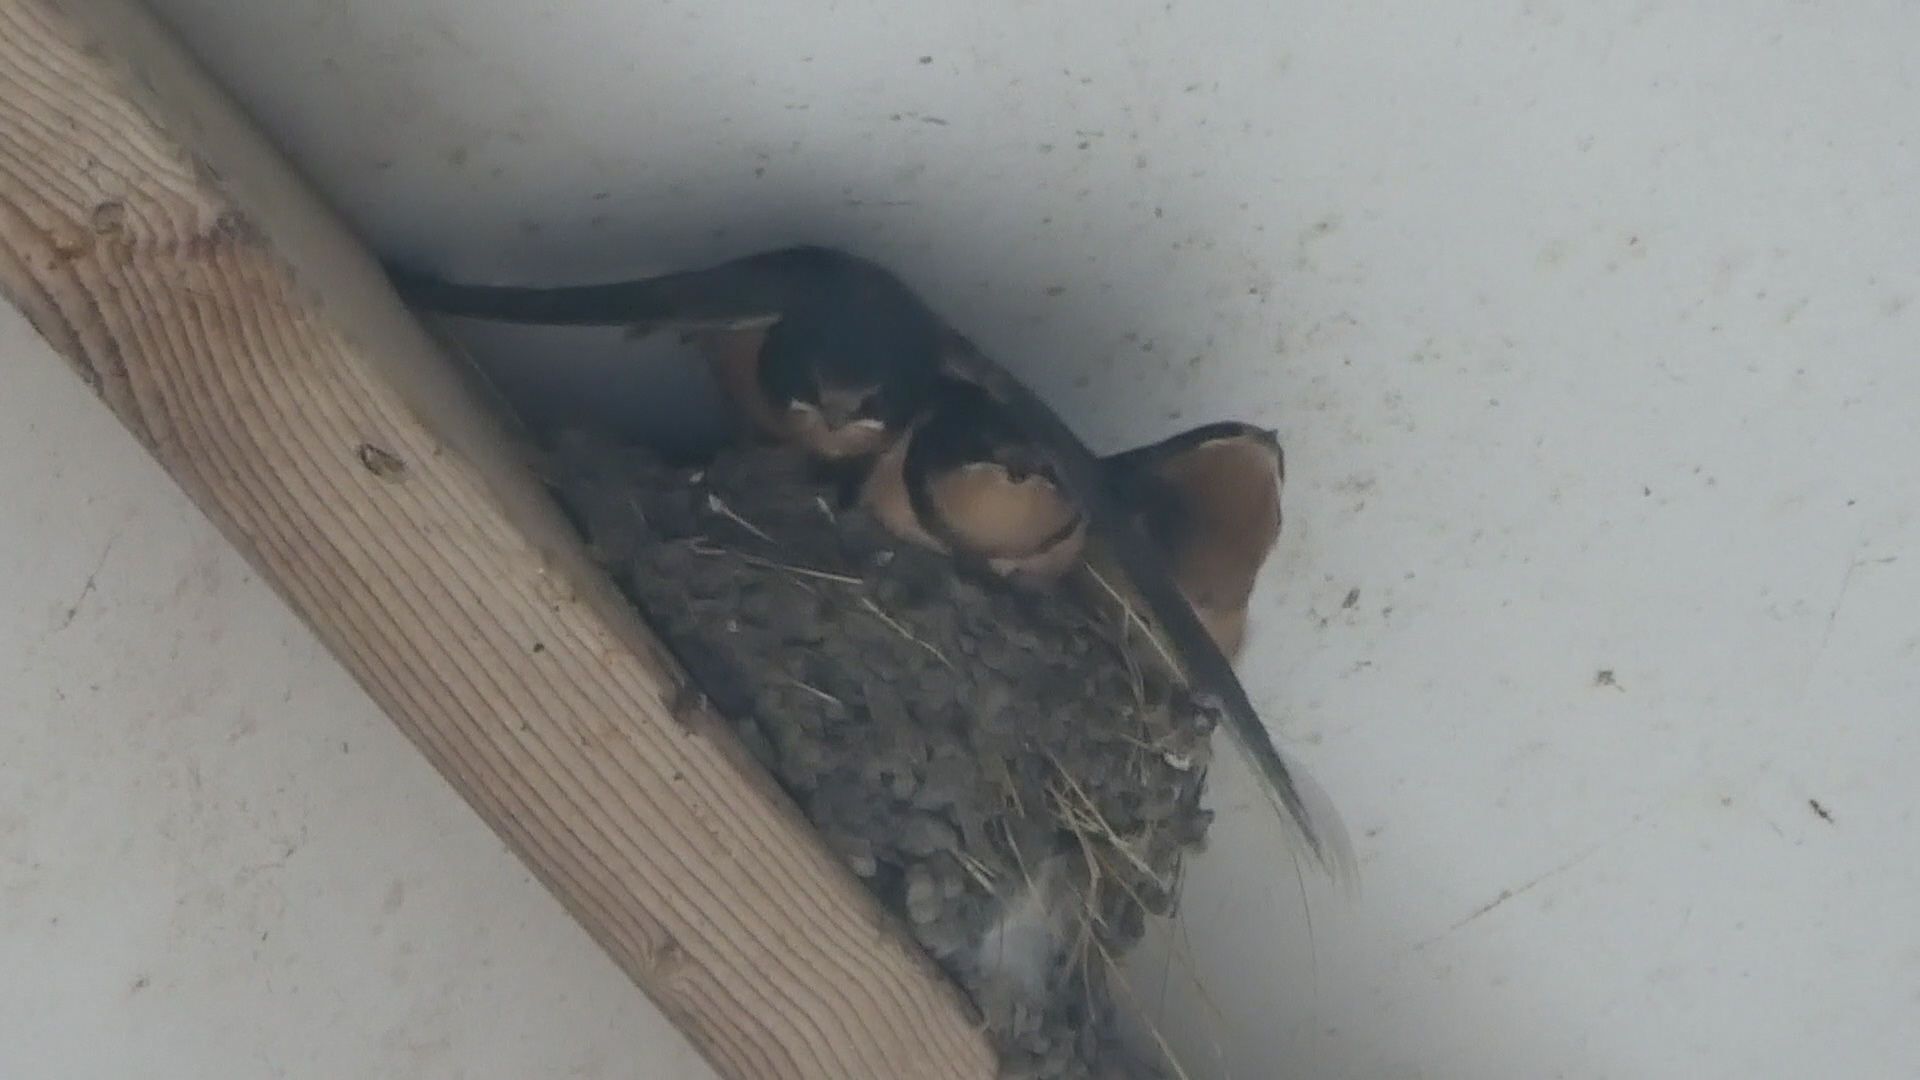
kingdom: Animalia
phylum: Chordata
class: Aves
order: Passeriformes
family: Hirundinidae
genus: Hirundo
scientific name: Hirundo rustica
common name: Barn swallow
